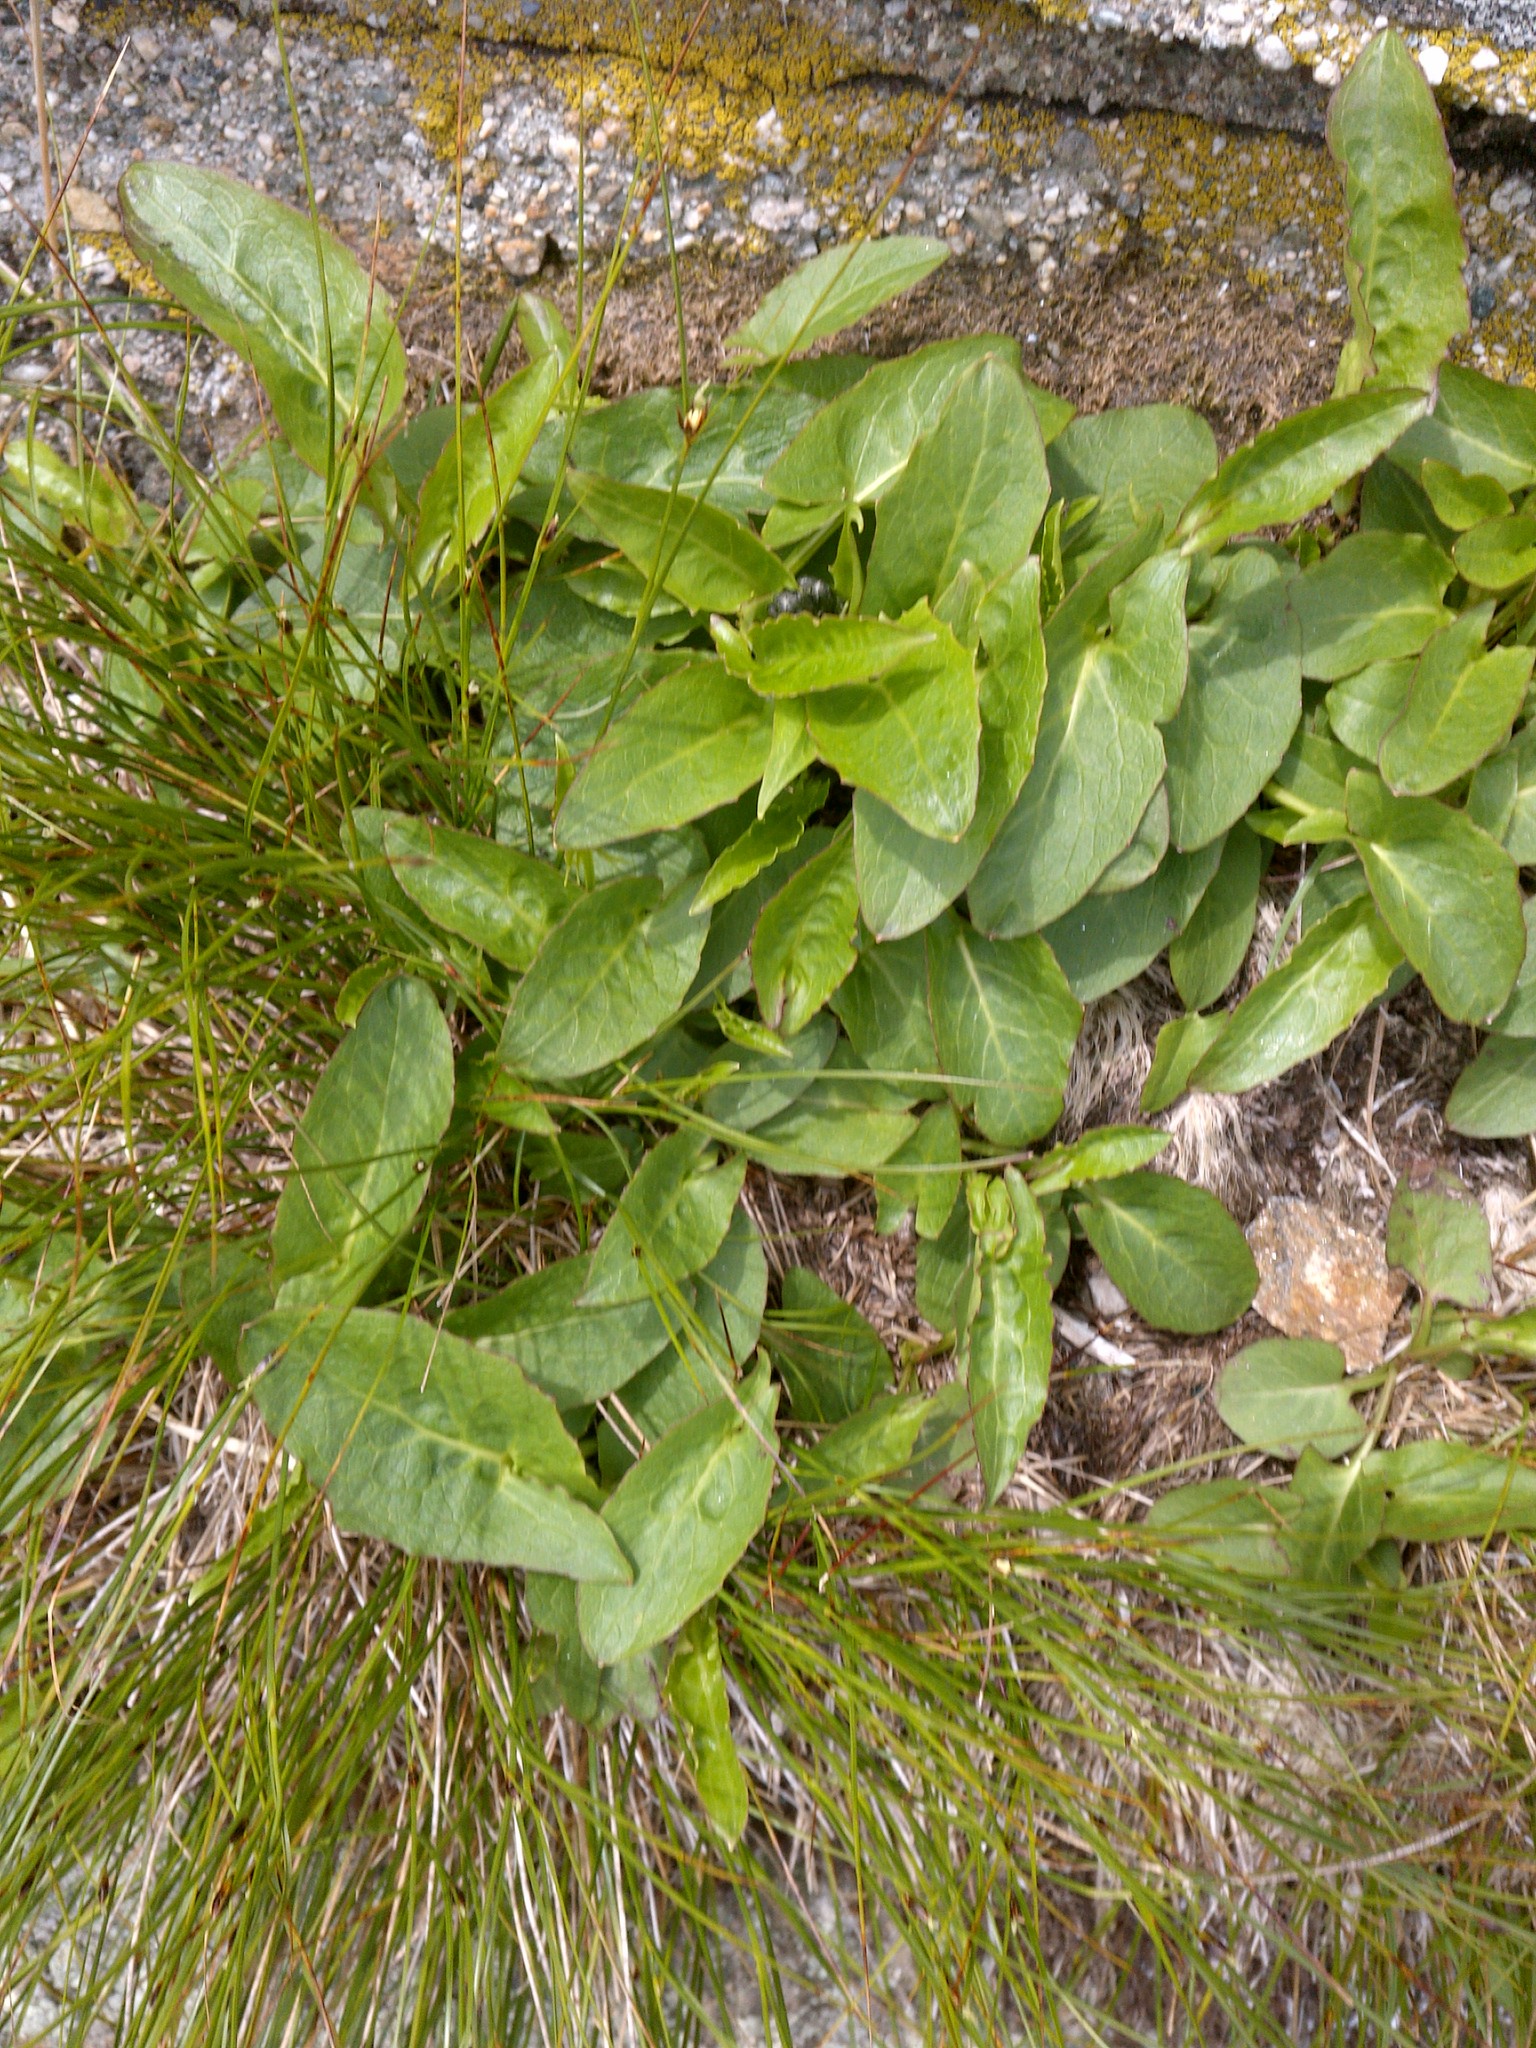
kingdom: Plantae
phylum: Tracheophyta
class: Magnoliopsida
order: Asterales
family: Asteraceae
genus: Nabalus
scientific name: Nabalus boottii
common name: Boot’s rattlesnakeroot
